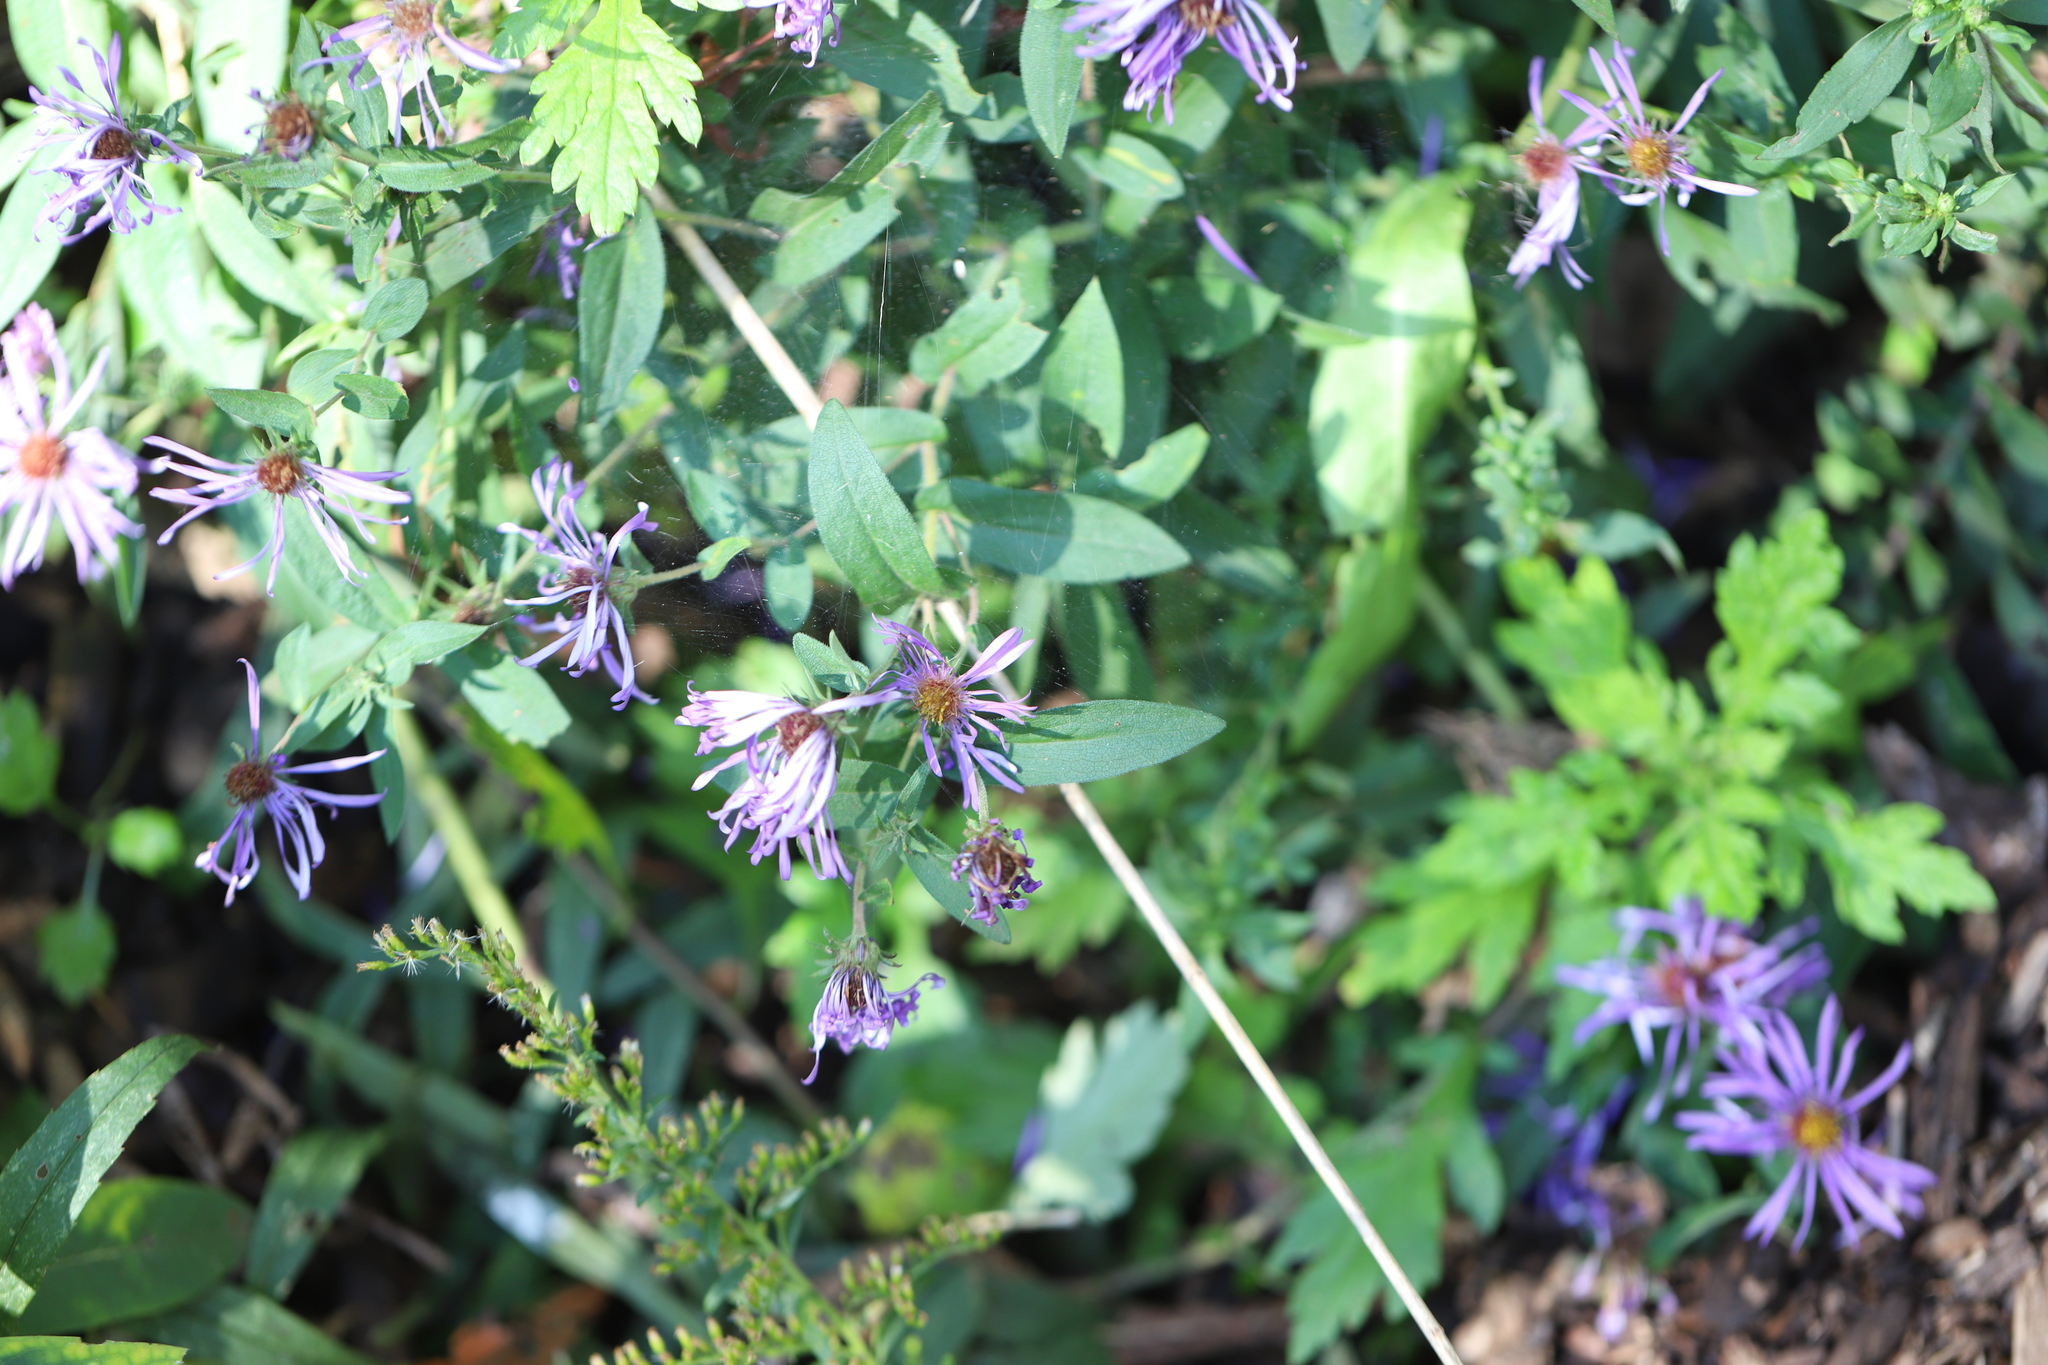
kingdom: Plantae
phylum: Tracheophyta
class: Magnoliopsida
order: Asterales
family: Asteraceae
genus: Symphyotrichum
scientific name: Symphyotrichum novae-angliae
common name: Michaelmas daisy
